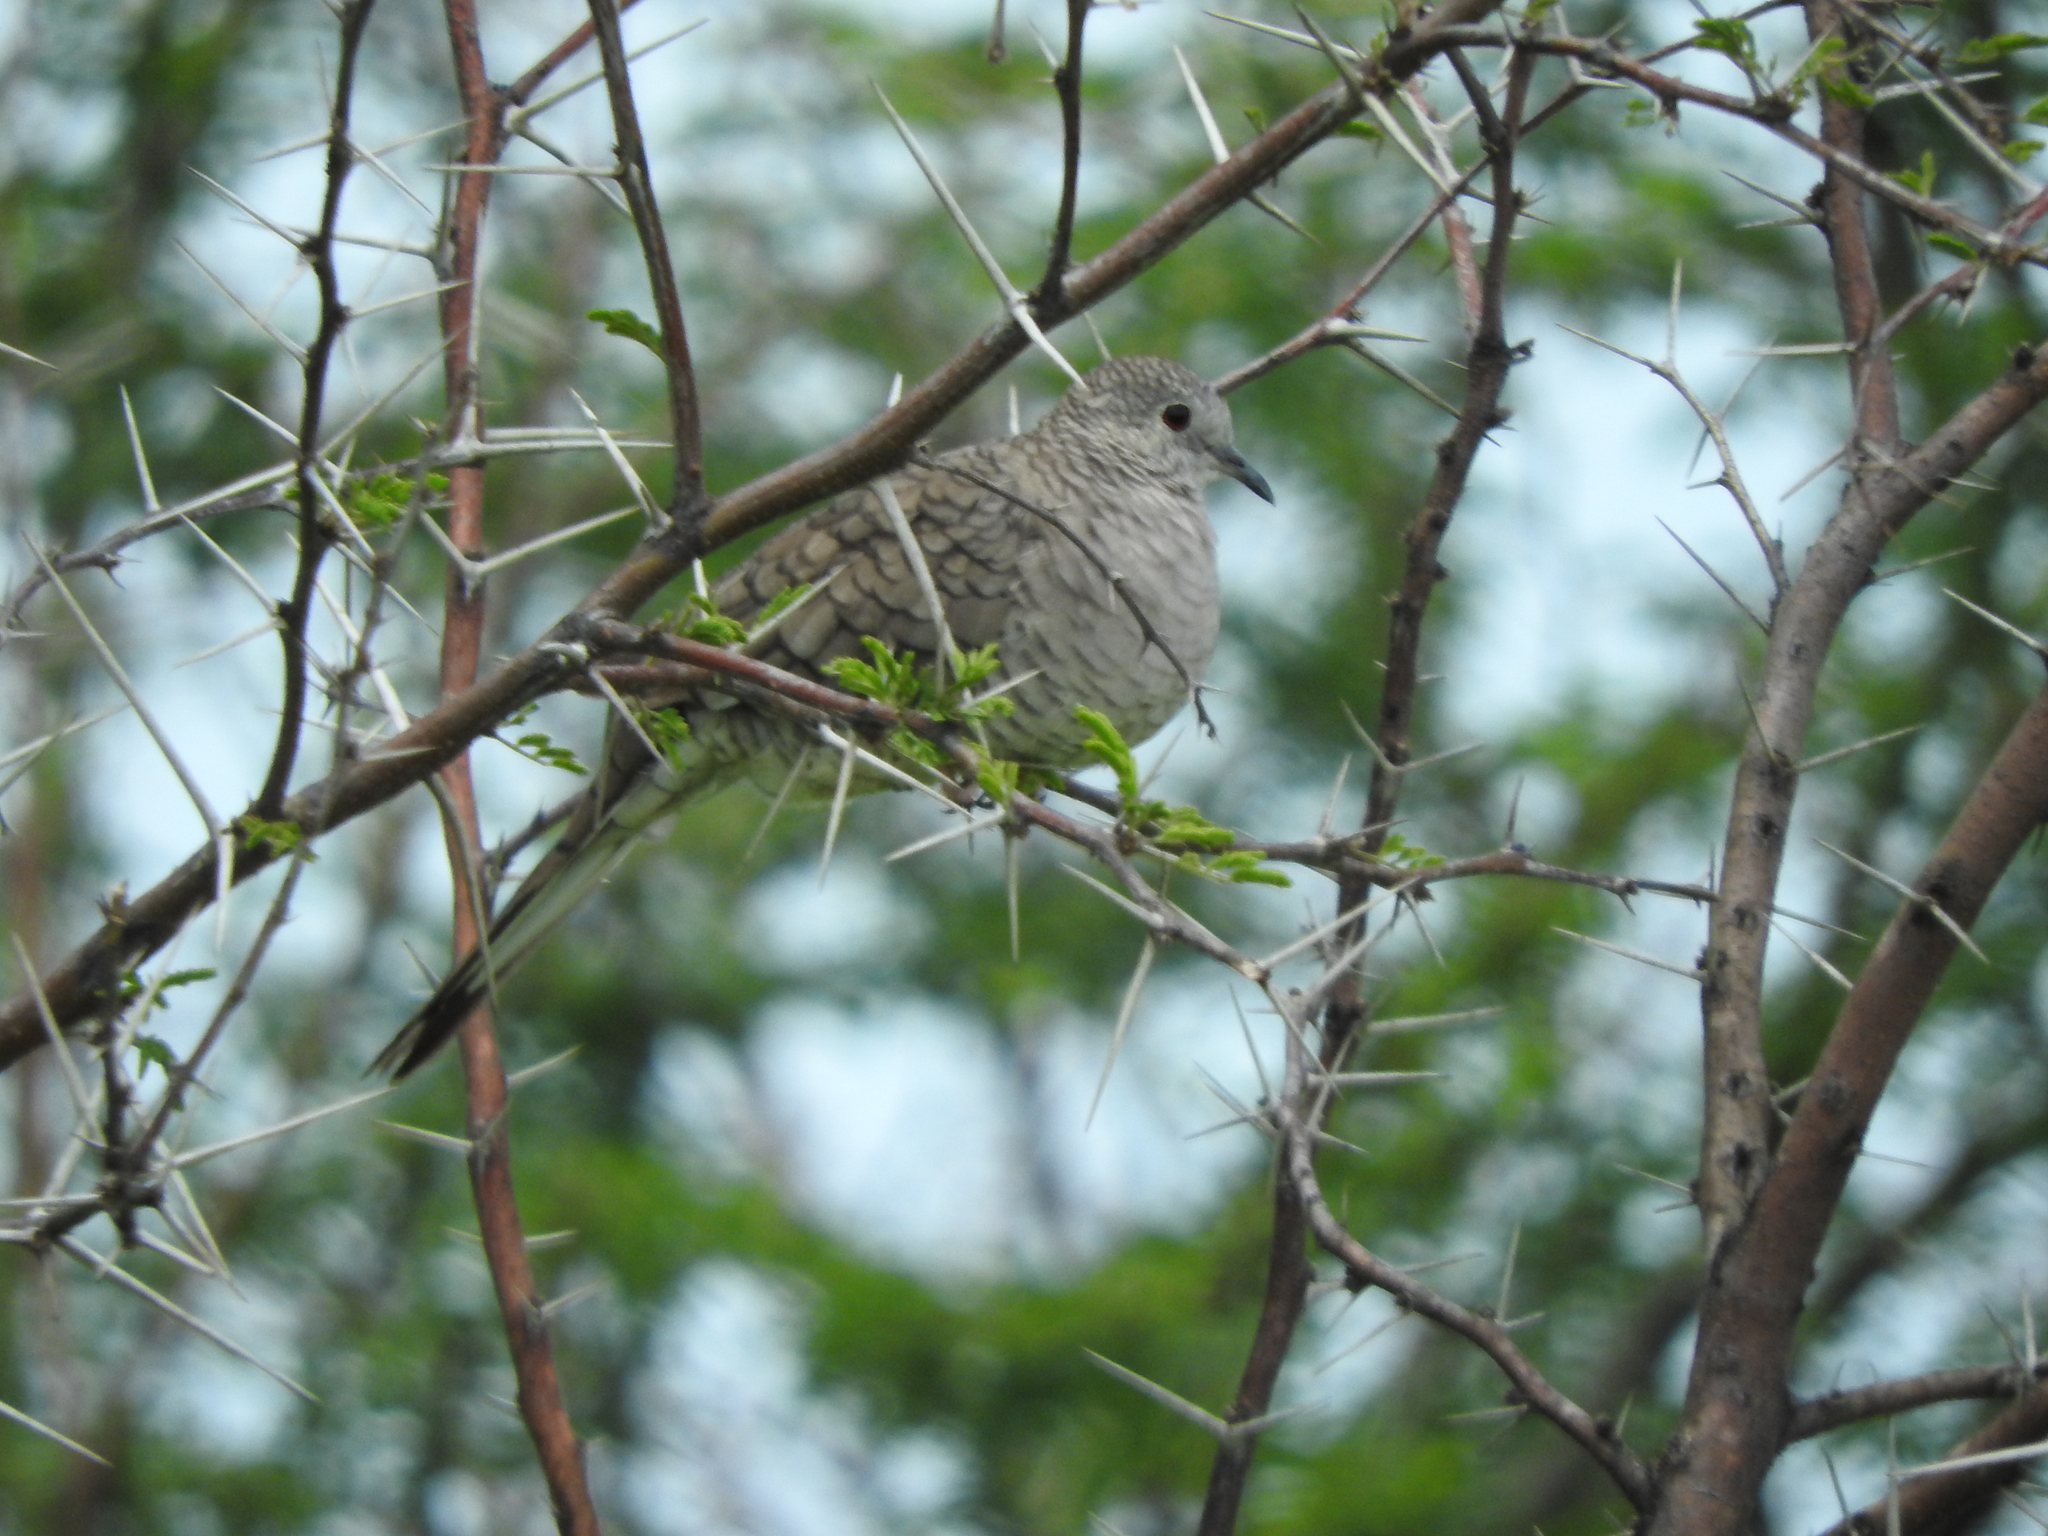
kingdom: Animalia
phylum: Chordata
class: Aves
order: Columbiformes
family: Columbidae
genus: Columbina
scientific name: Columbina inca
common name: Inca dove
